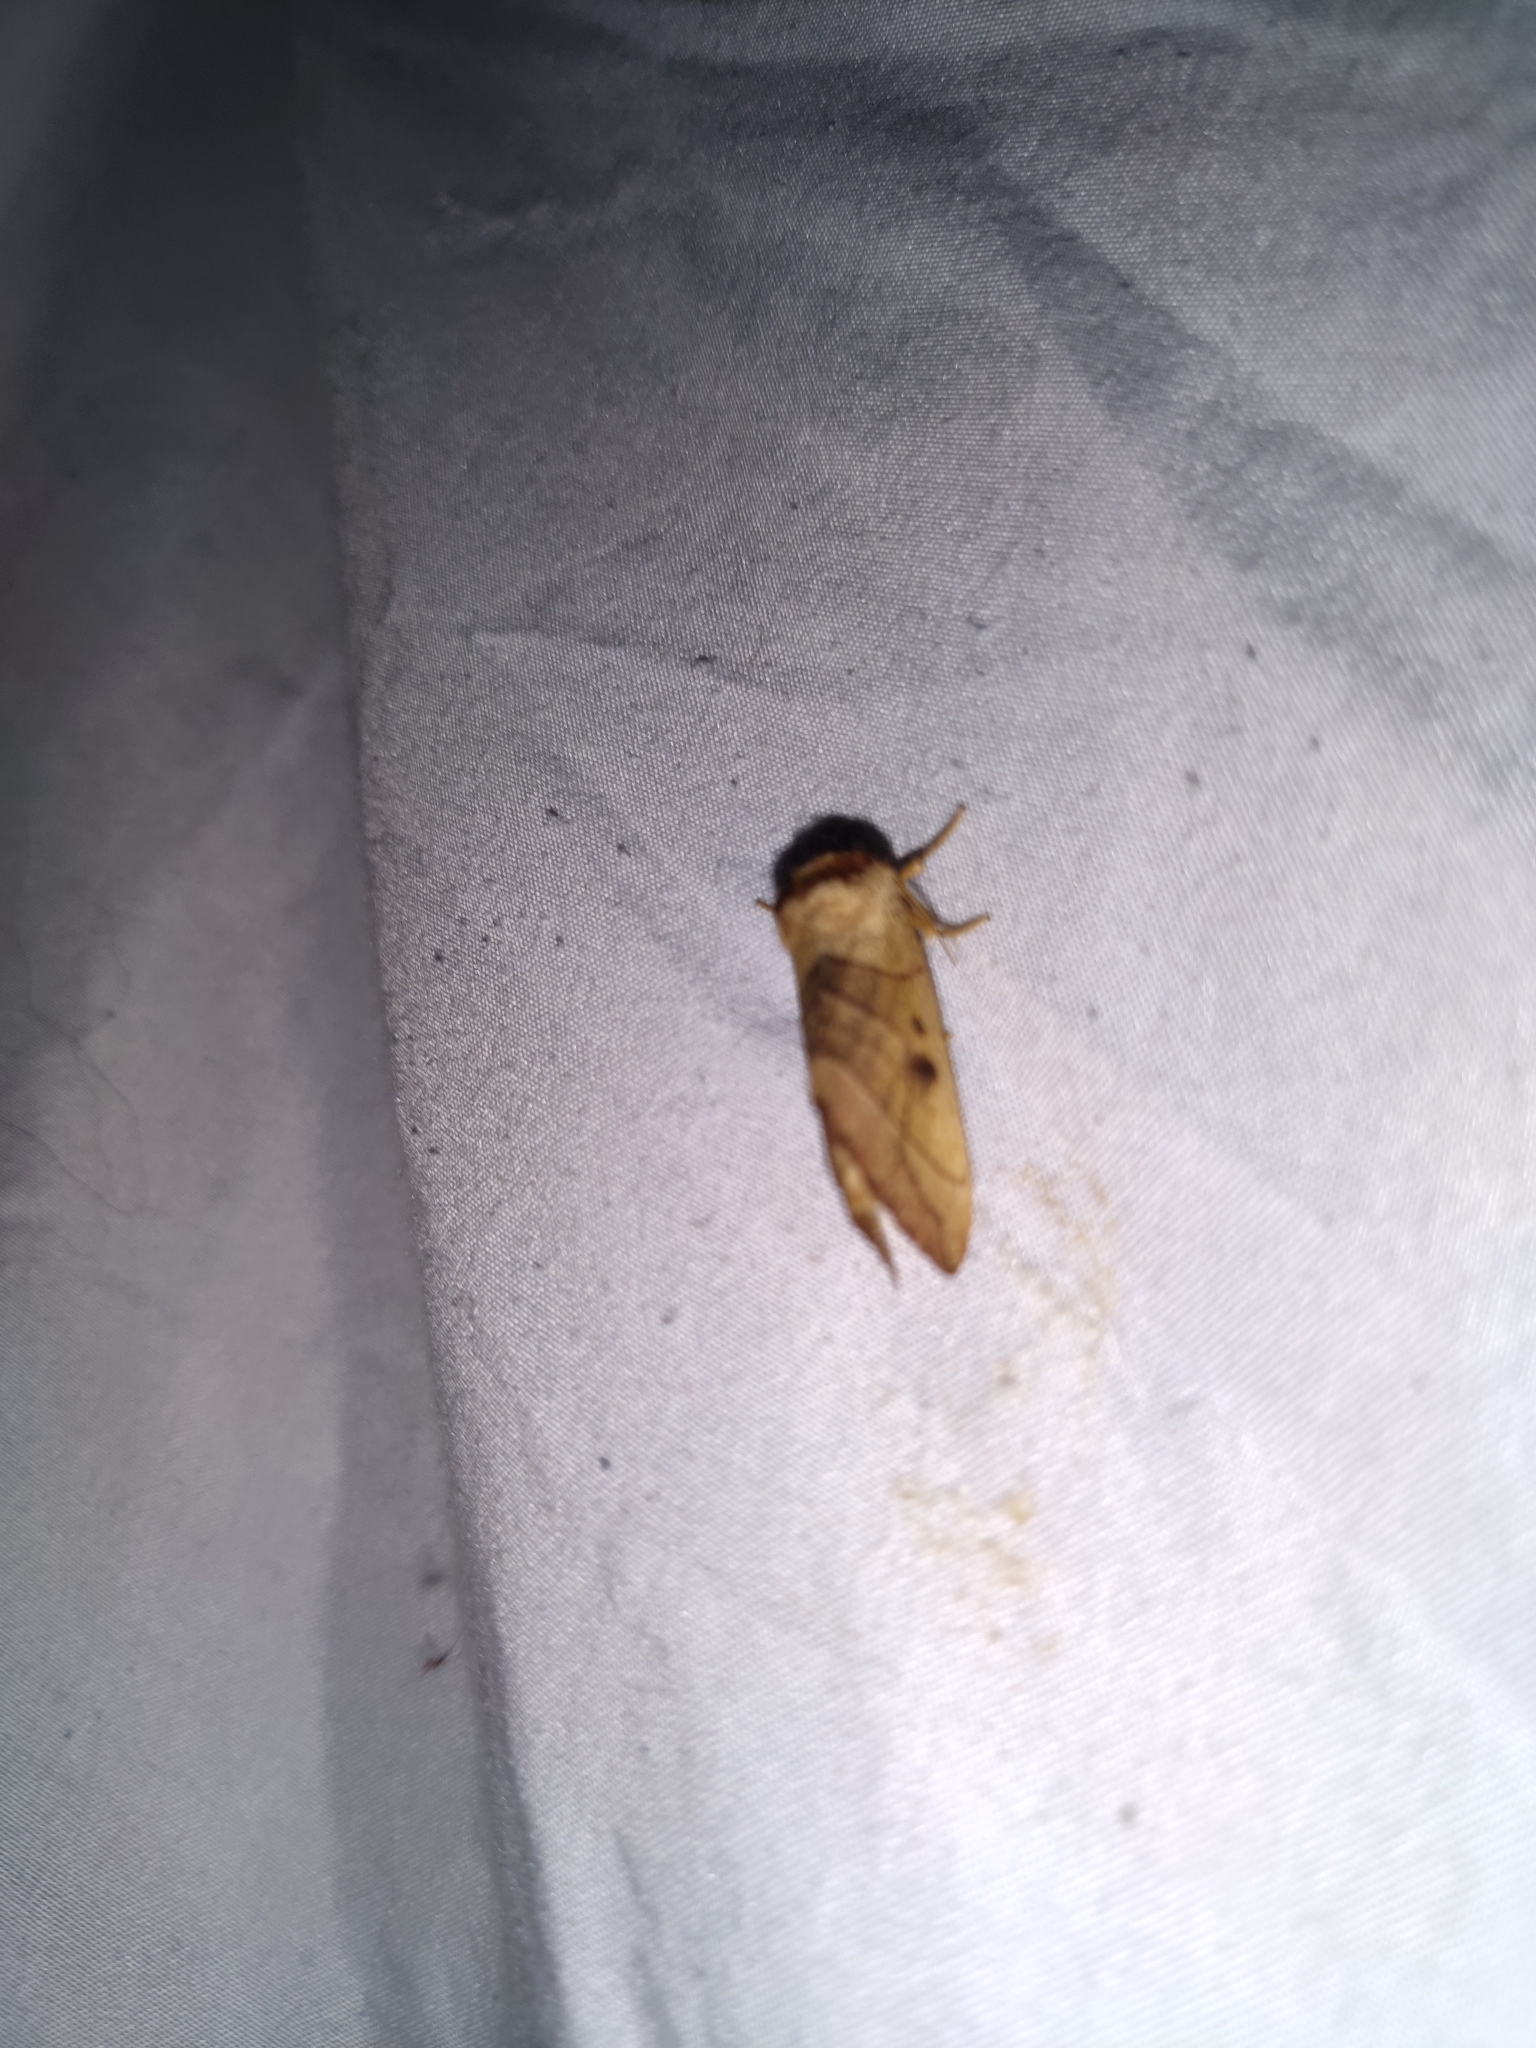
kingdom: Animalia
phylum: Arthropoda
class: Insecta
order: Lepidoptera
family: Notodontidae
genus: Datana
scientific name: Datana perspicua
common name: Spotted datana
